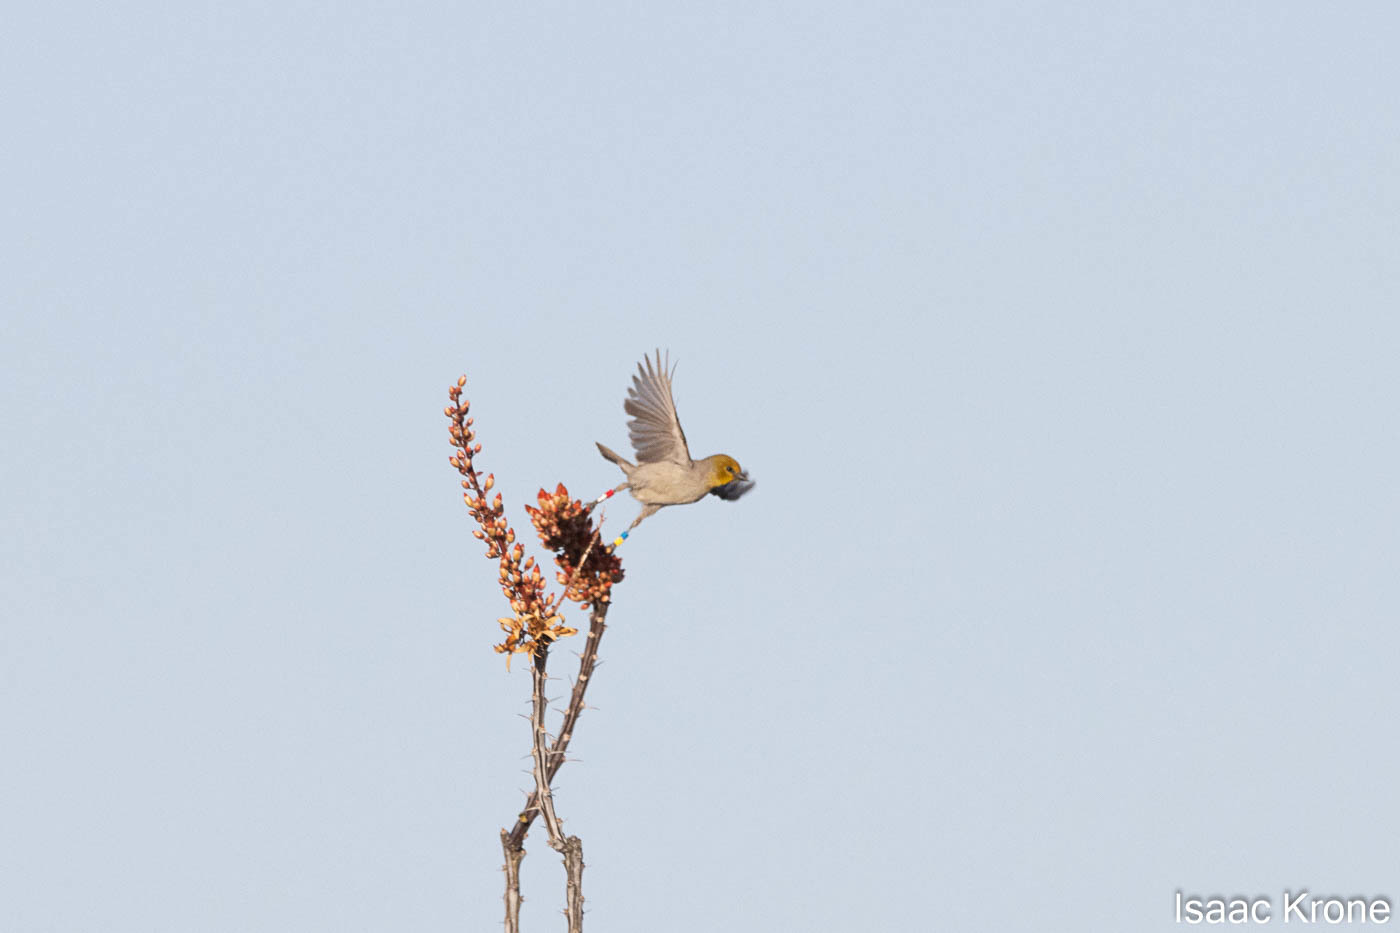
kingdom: Animalia
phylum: Chordata
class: Aves
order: Passeriformes
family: Remizidae
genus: Auriparus
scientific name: Auriparus flaviceps
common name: Verdin
